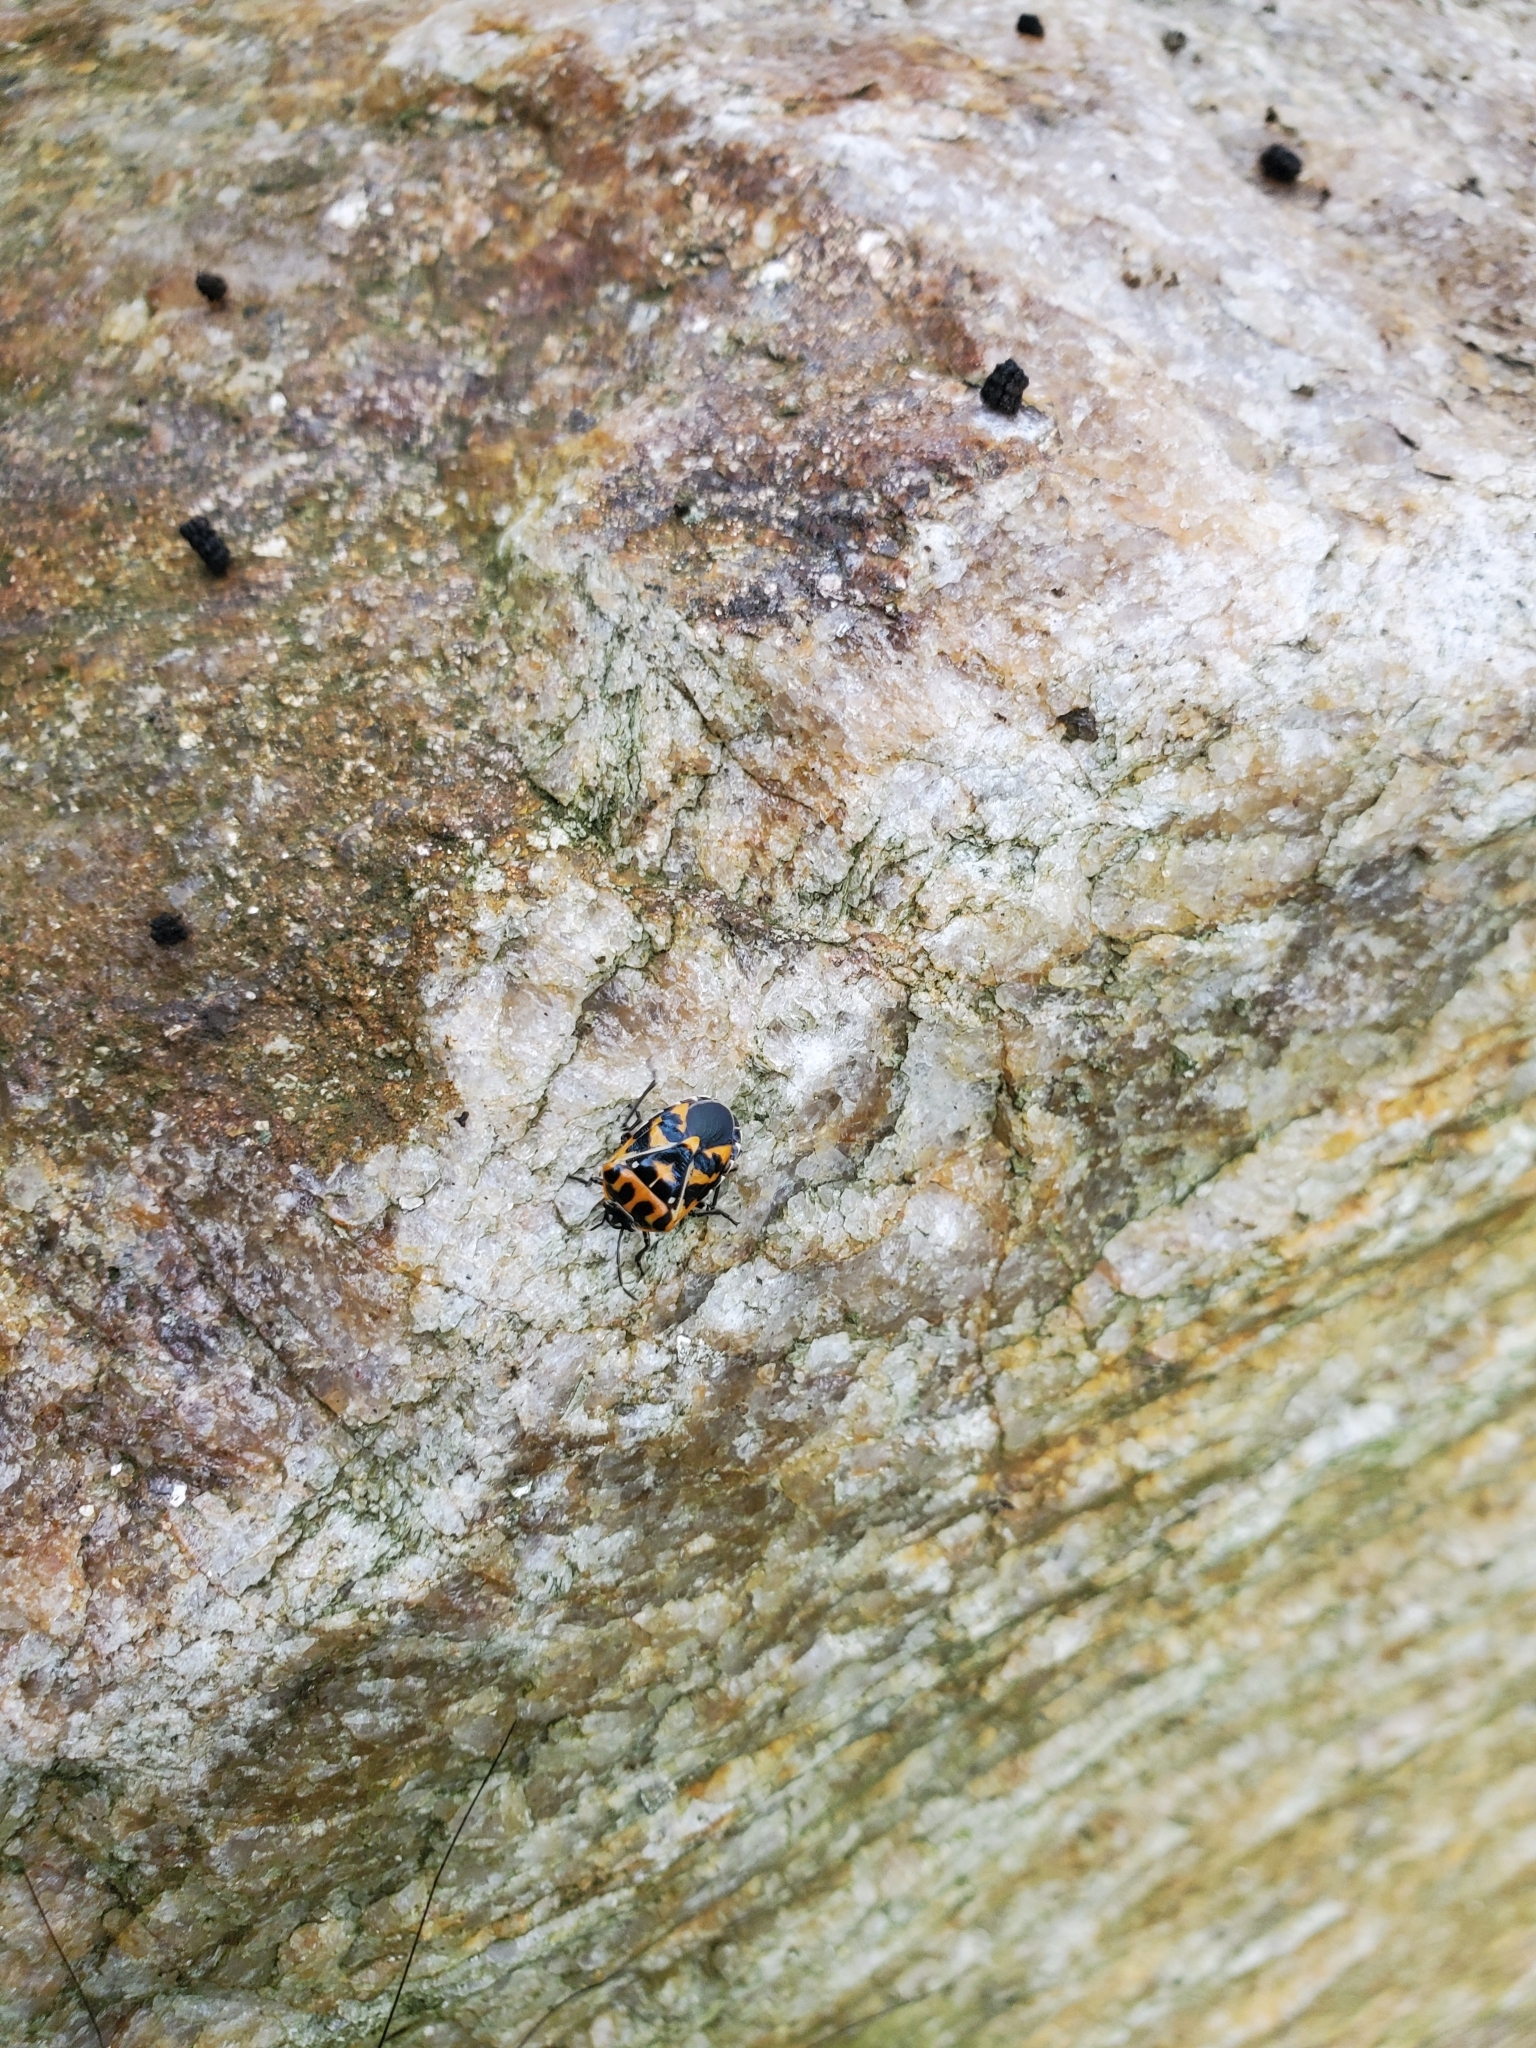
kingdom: Animalia
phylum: Arthropoda
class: Insecta
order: Hemiptera
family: Pentatomidae
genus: Murgantia
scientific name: Murgantia histrionica
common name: Harlequin bug
